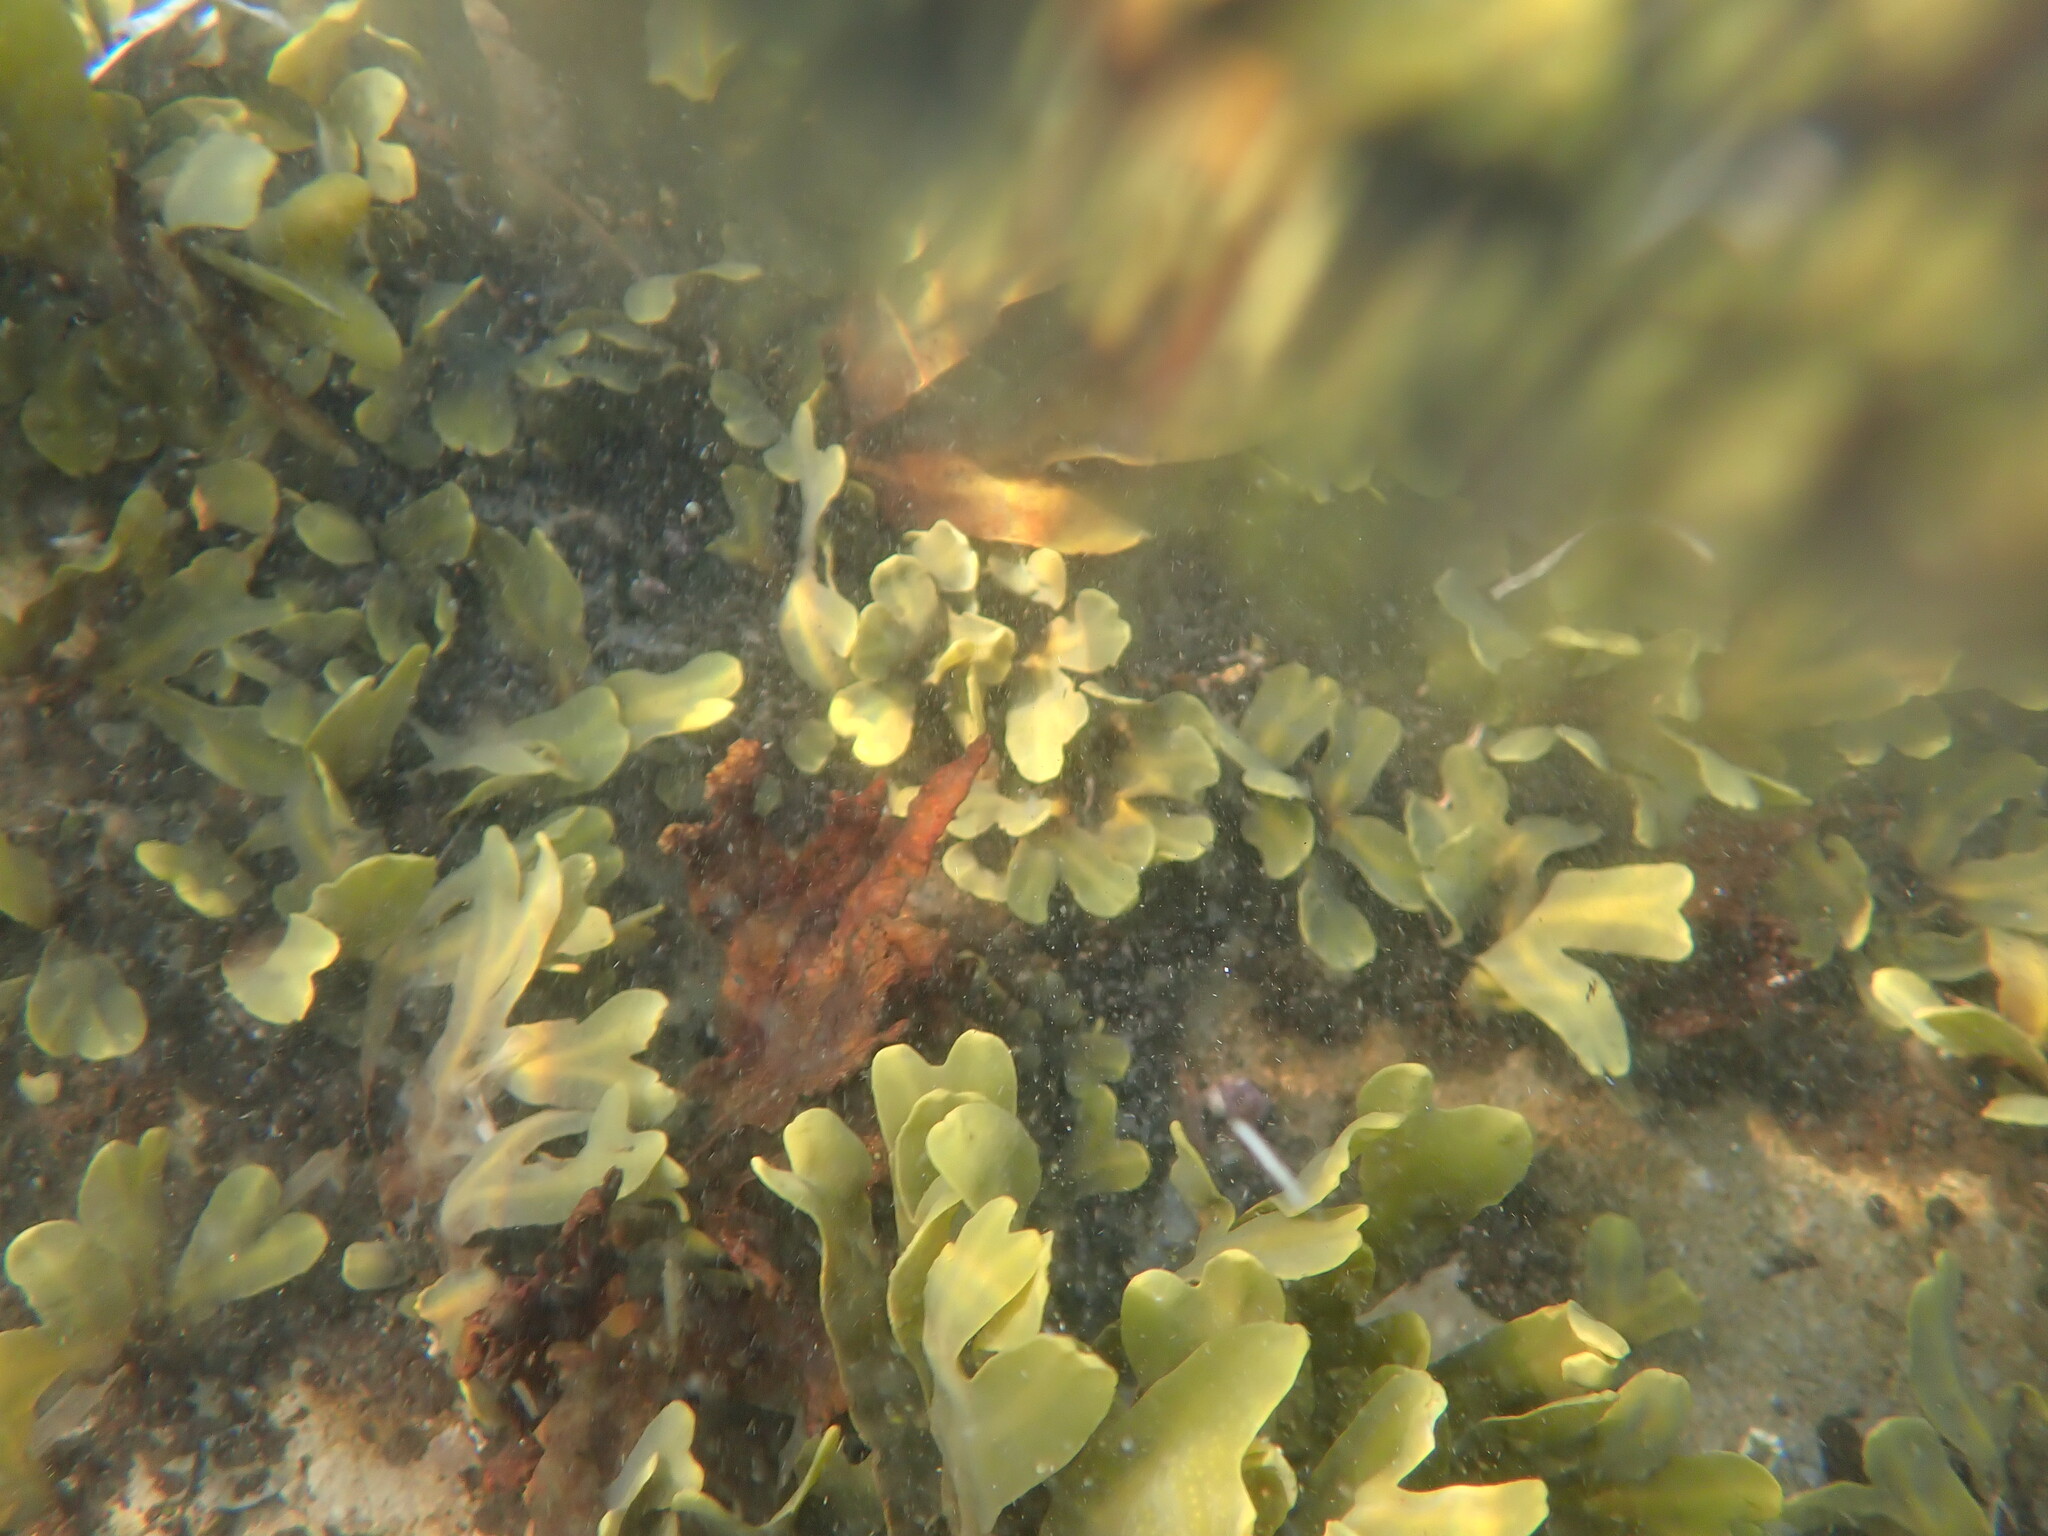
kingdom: Chromista
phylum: Ochrophyta
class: Phaeophyceae
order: Fucales
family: Fucaceae
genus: Fucus
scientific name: Fucus distichus
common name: Rockweed
